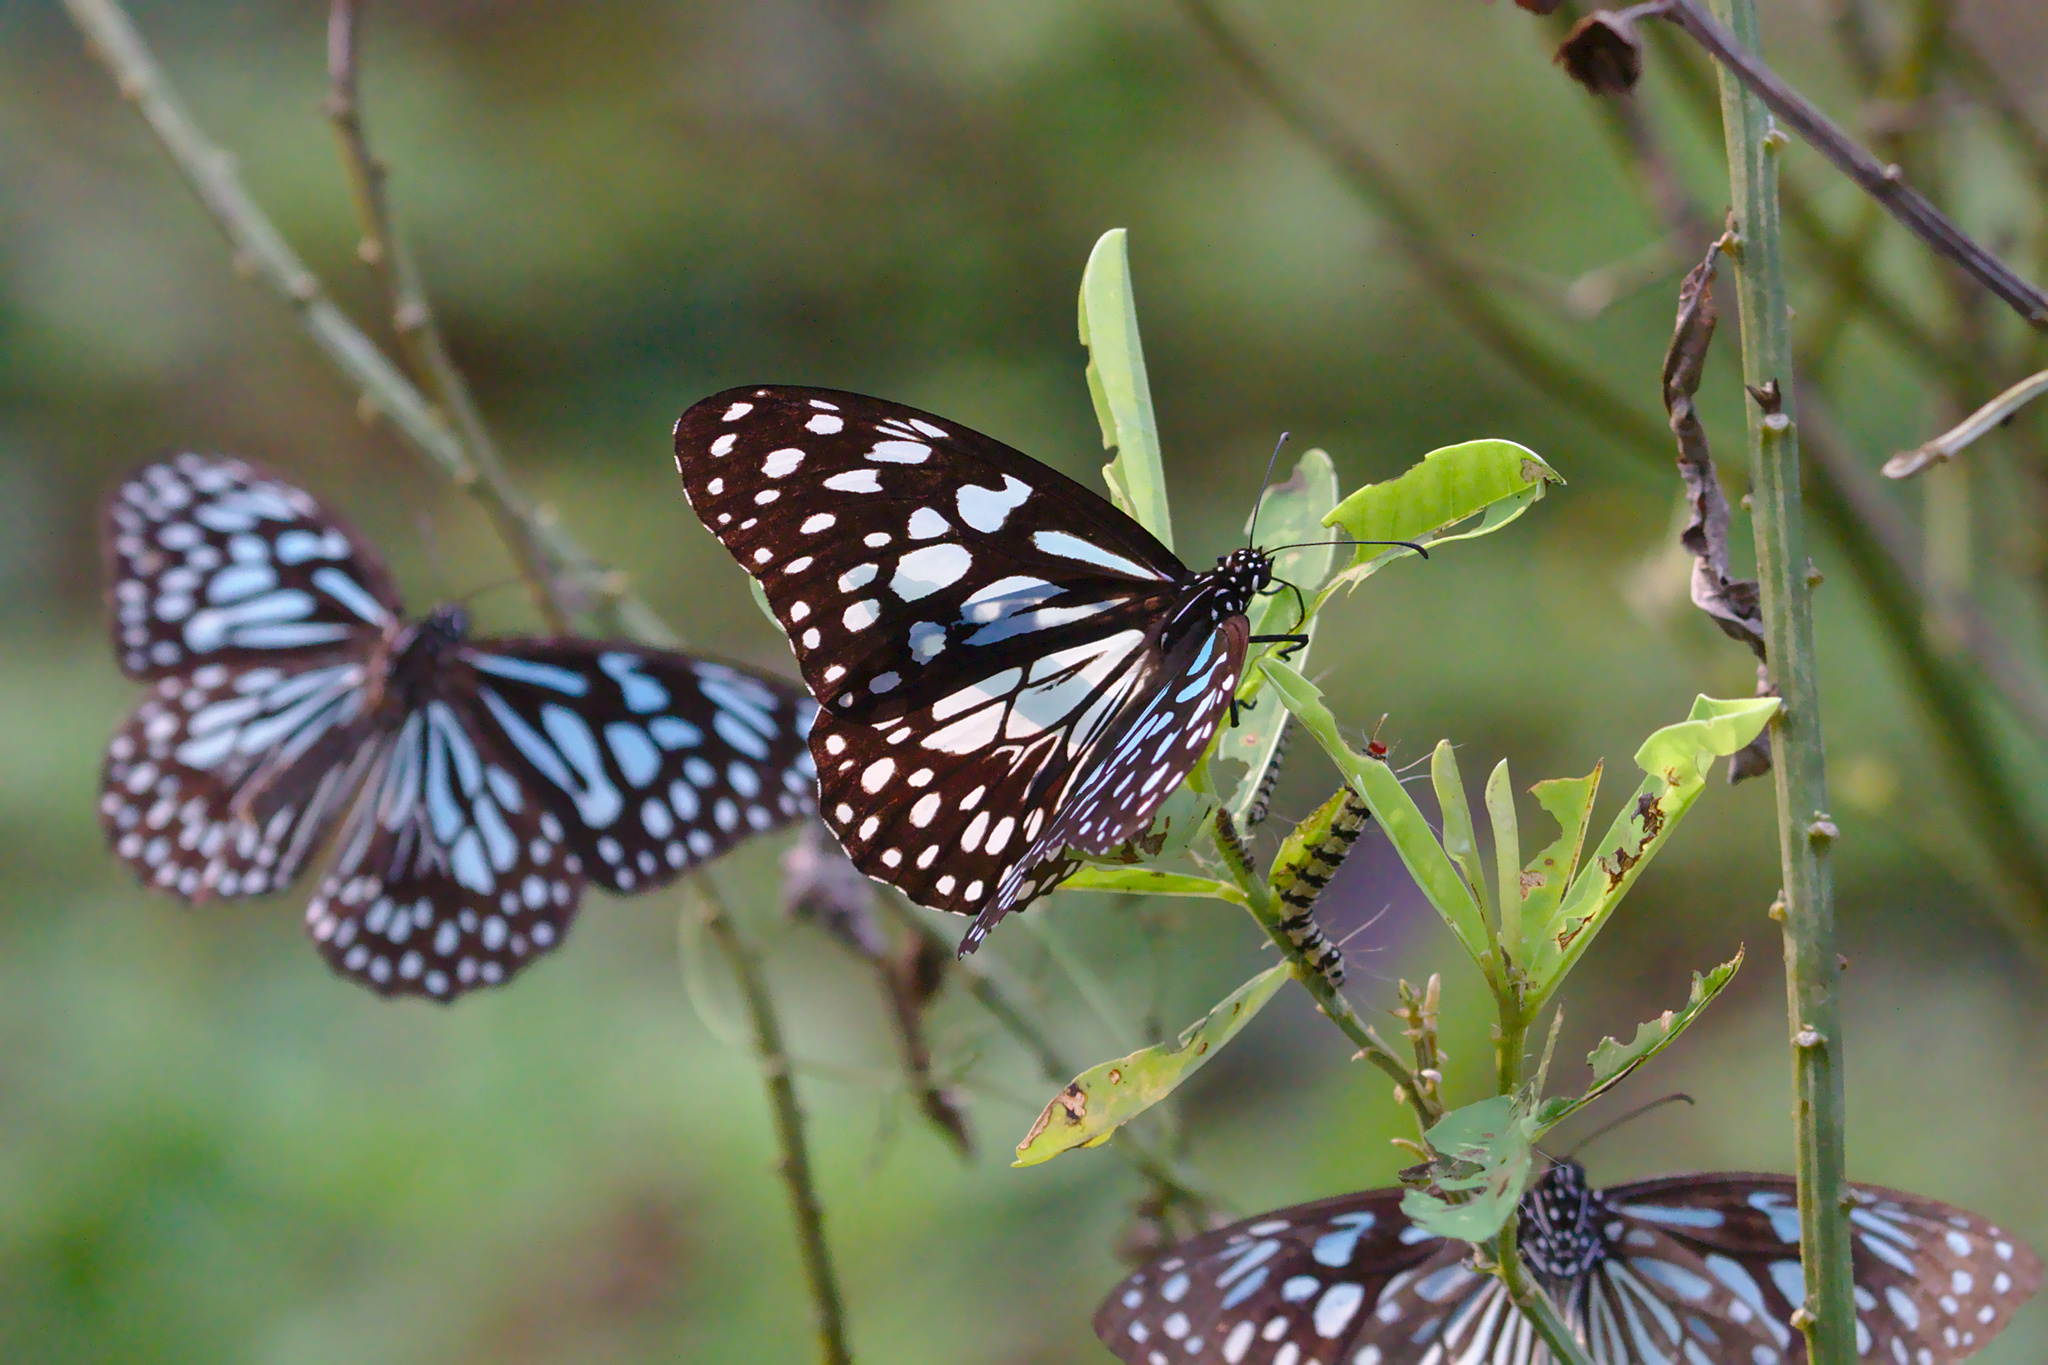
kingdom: Animalia
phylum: Arthropoda
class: Insecta
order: Lepidoptera
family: Nymphalidae
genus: Tirumala
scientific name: Tirumala limniace
